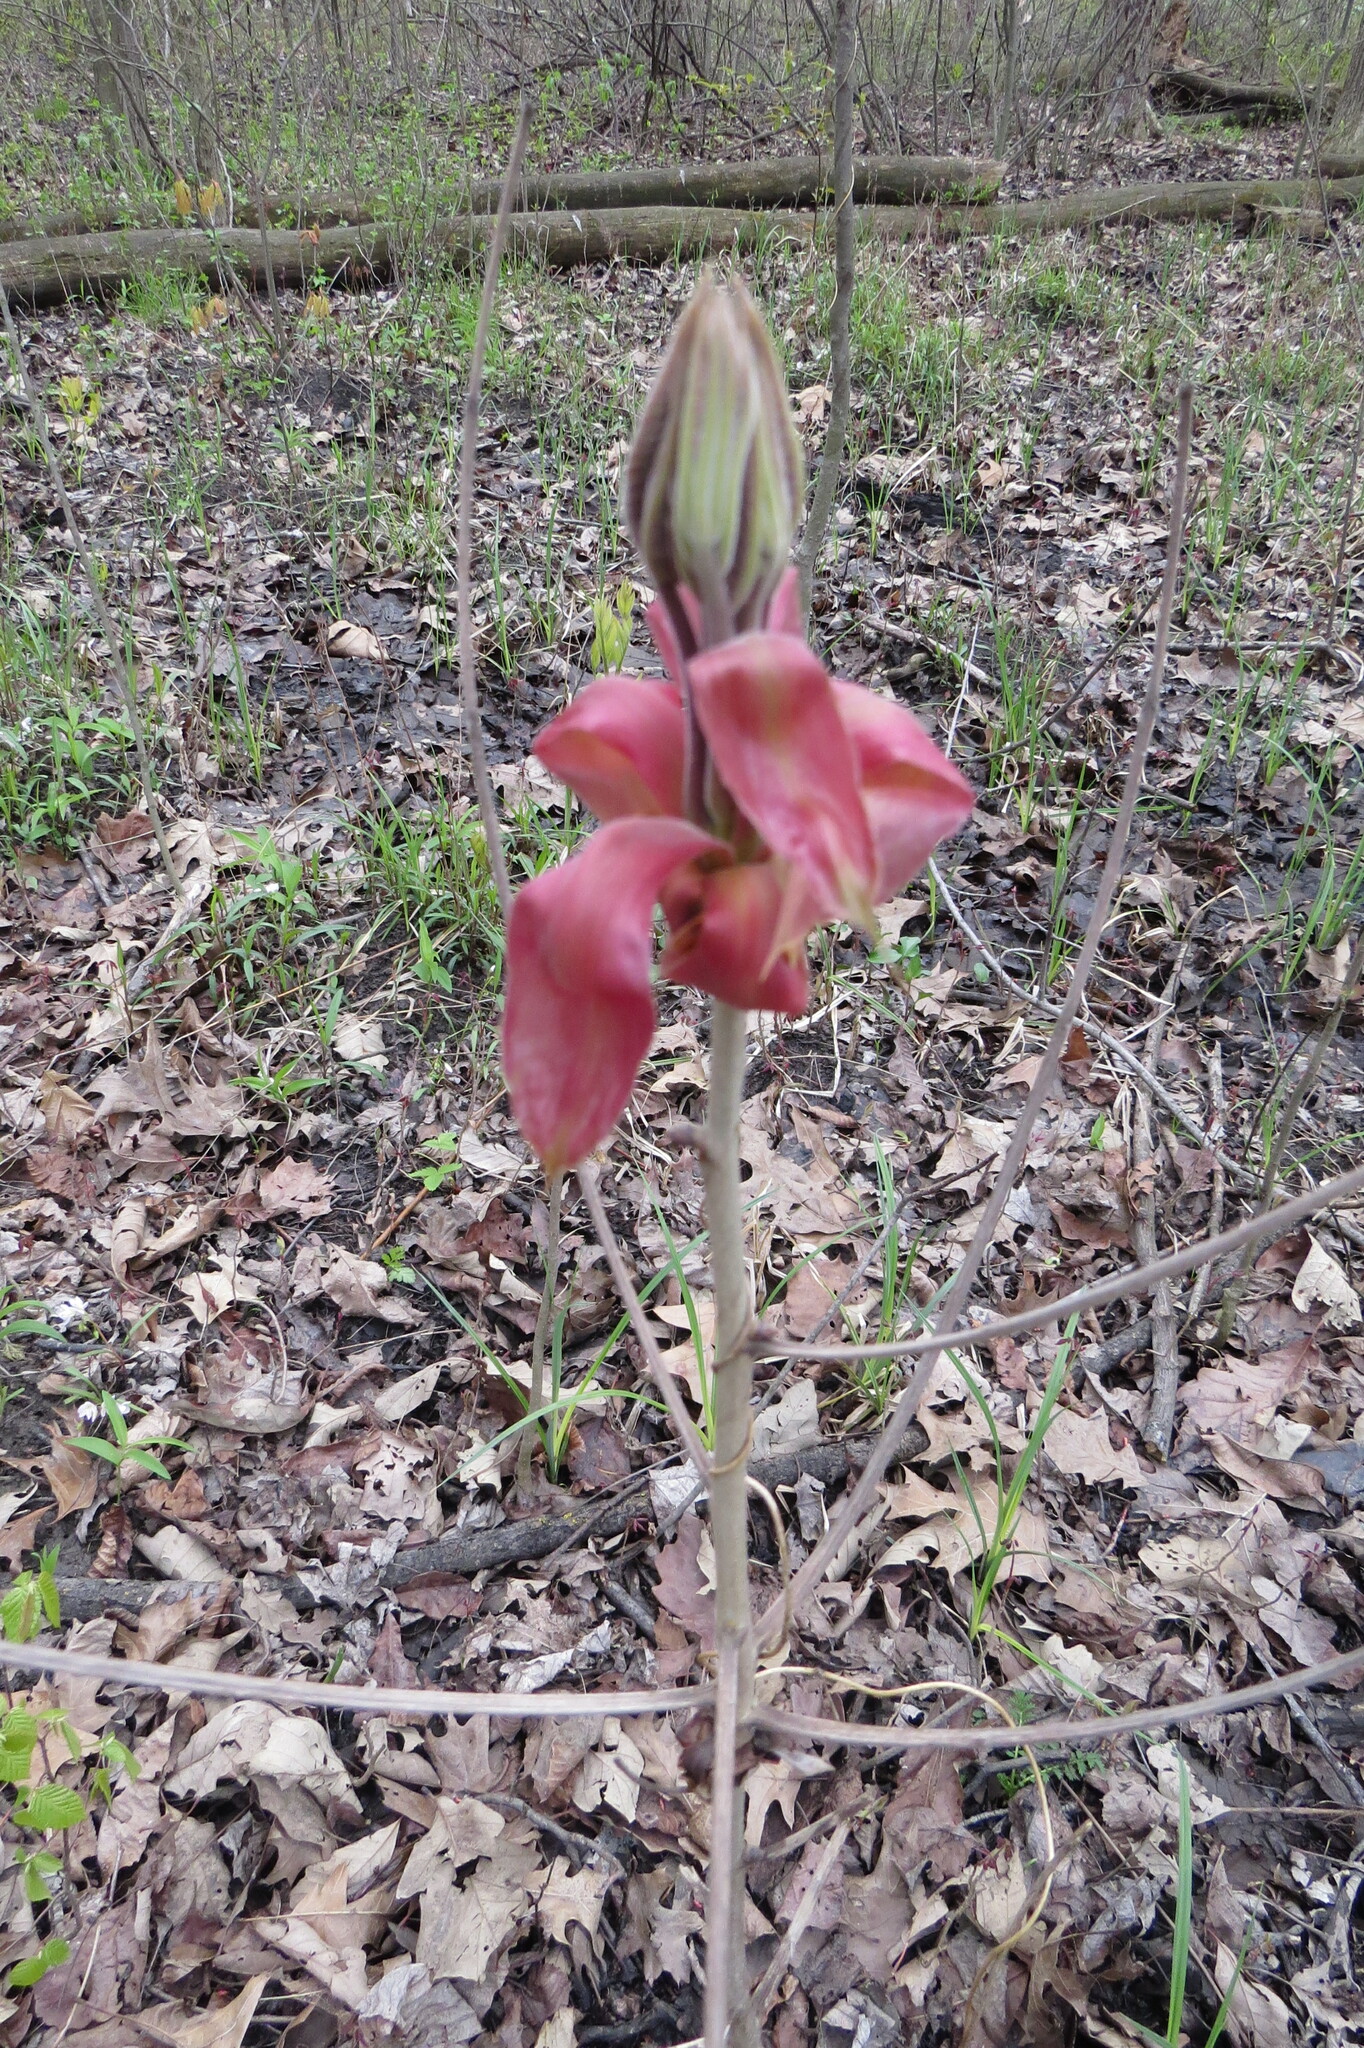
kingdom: Plantae
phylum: Tracheophyta
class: Magnoliopsida
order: Fagales
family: Juglandaceae
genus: Carya
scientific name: Carya ovata
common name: Shagbark hickory
